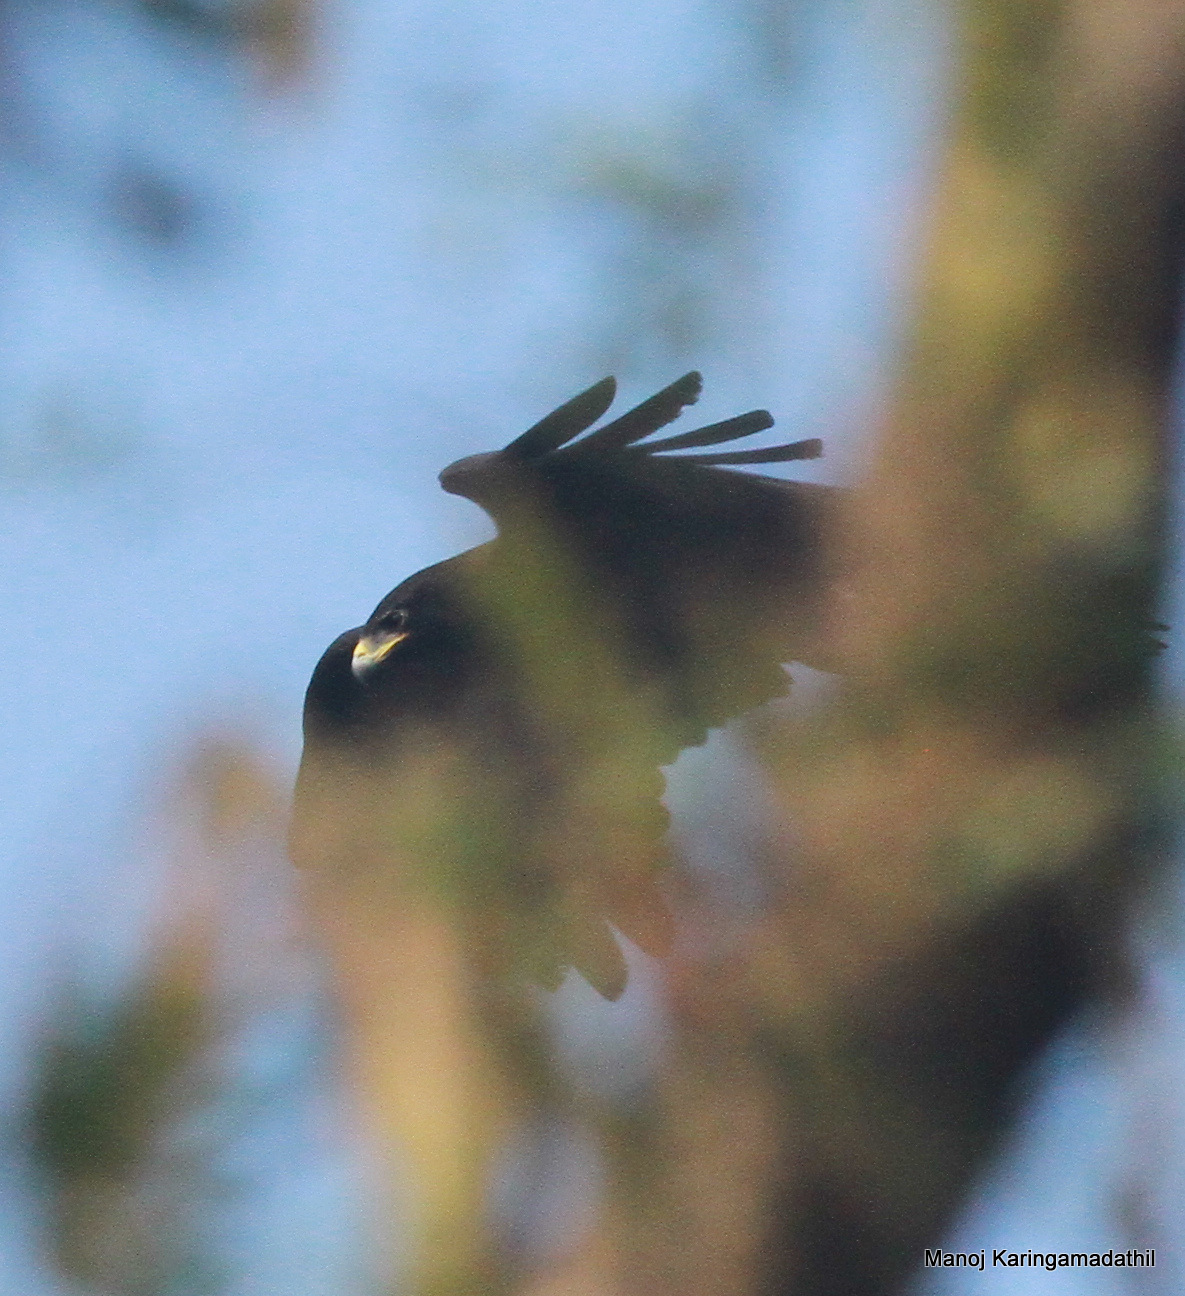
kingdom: Animalia
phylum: Chordata
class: Aves
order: Accipitriformes
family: Accipitridae
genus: Ictinaetus
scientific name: Ictinaetus malayensis
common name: Black eagle
